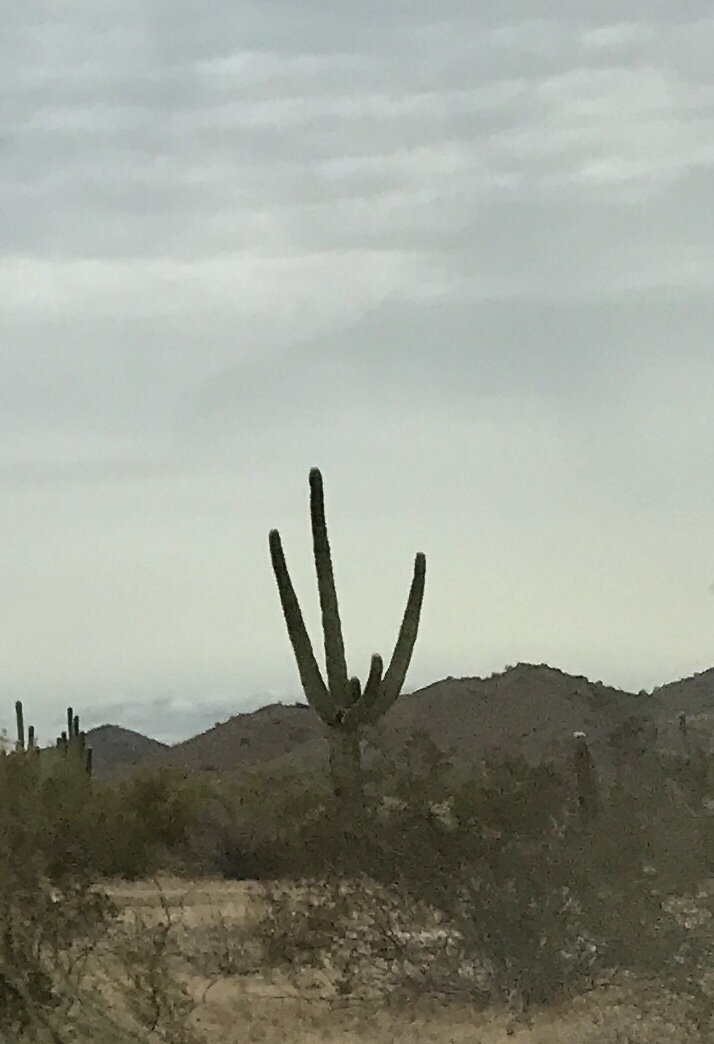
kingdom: Plantae
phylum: Tracheophyta
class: Magnoliopsida
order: Caryophyllales
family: Cactaceae
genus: Carnegiea
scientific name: Carnegiea gigantea
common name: Saguaro
